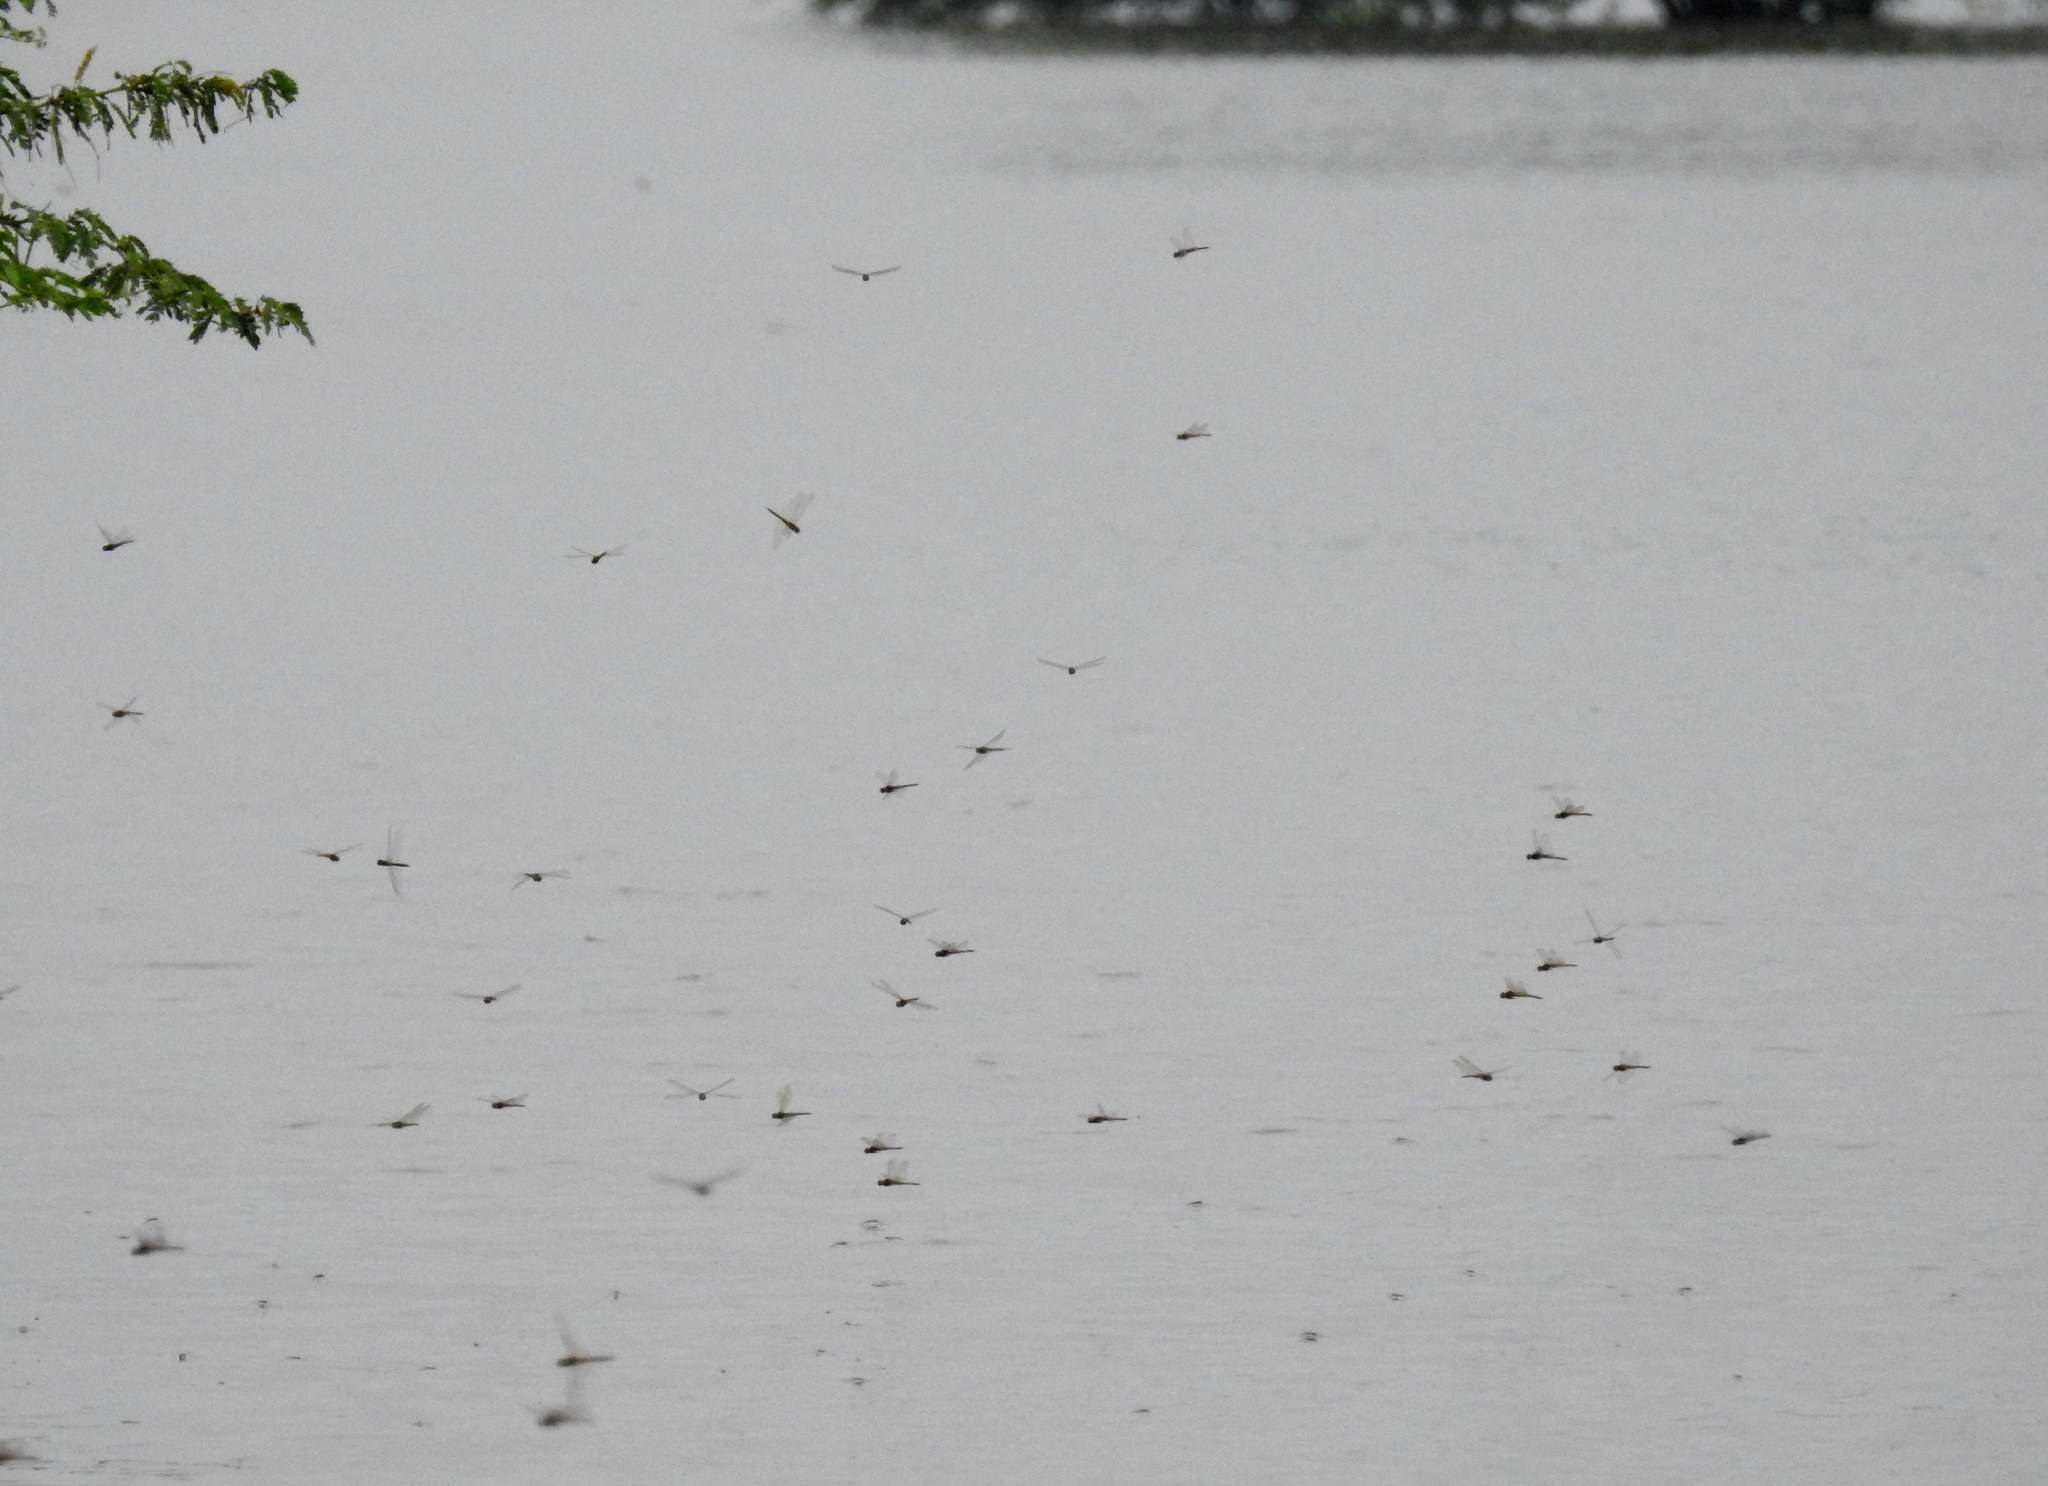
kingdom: Animalia
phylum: Arthropoda
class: Insecta
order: Odonata
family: Libellulidae
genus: Pantala
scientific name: Pantala flavescens
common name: Wandering glider
